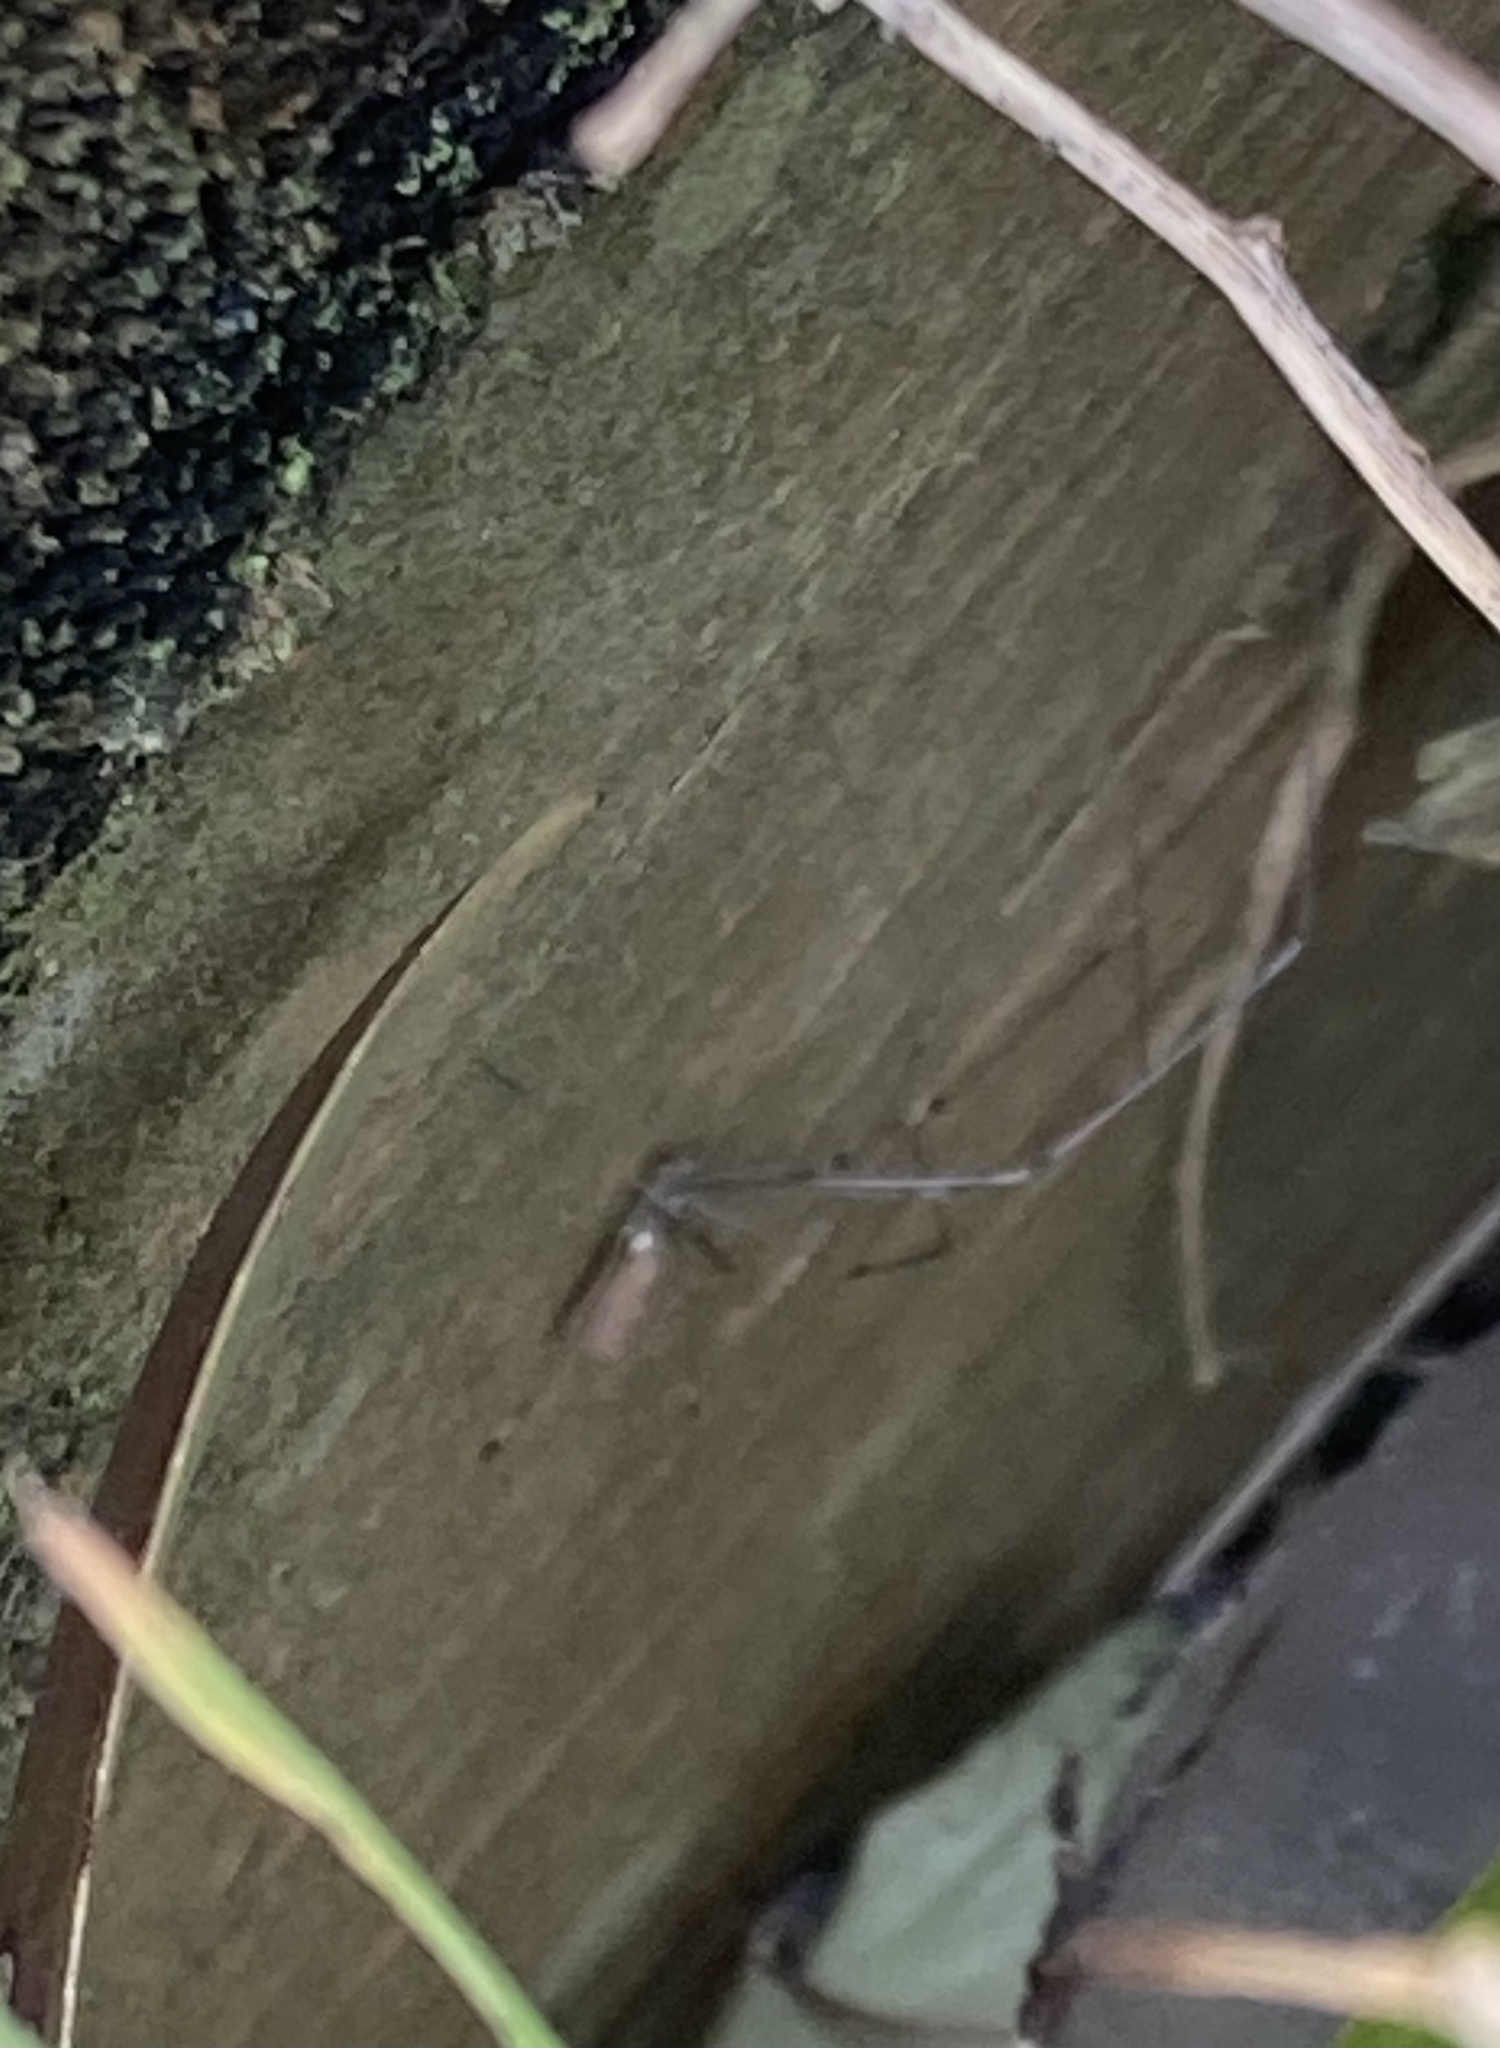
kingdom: Animalia
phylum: Arthropoda
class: Arachnida
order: Araneae
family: Pholcidae
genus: Pholcus
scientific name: Pholcus phalangioides
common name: Longbodied cellar spider
